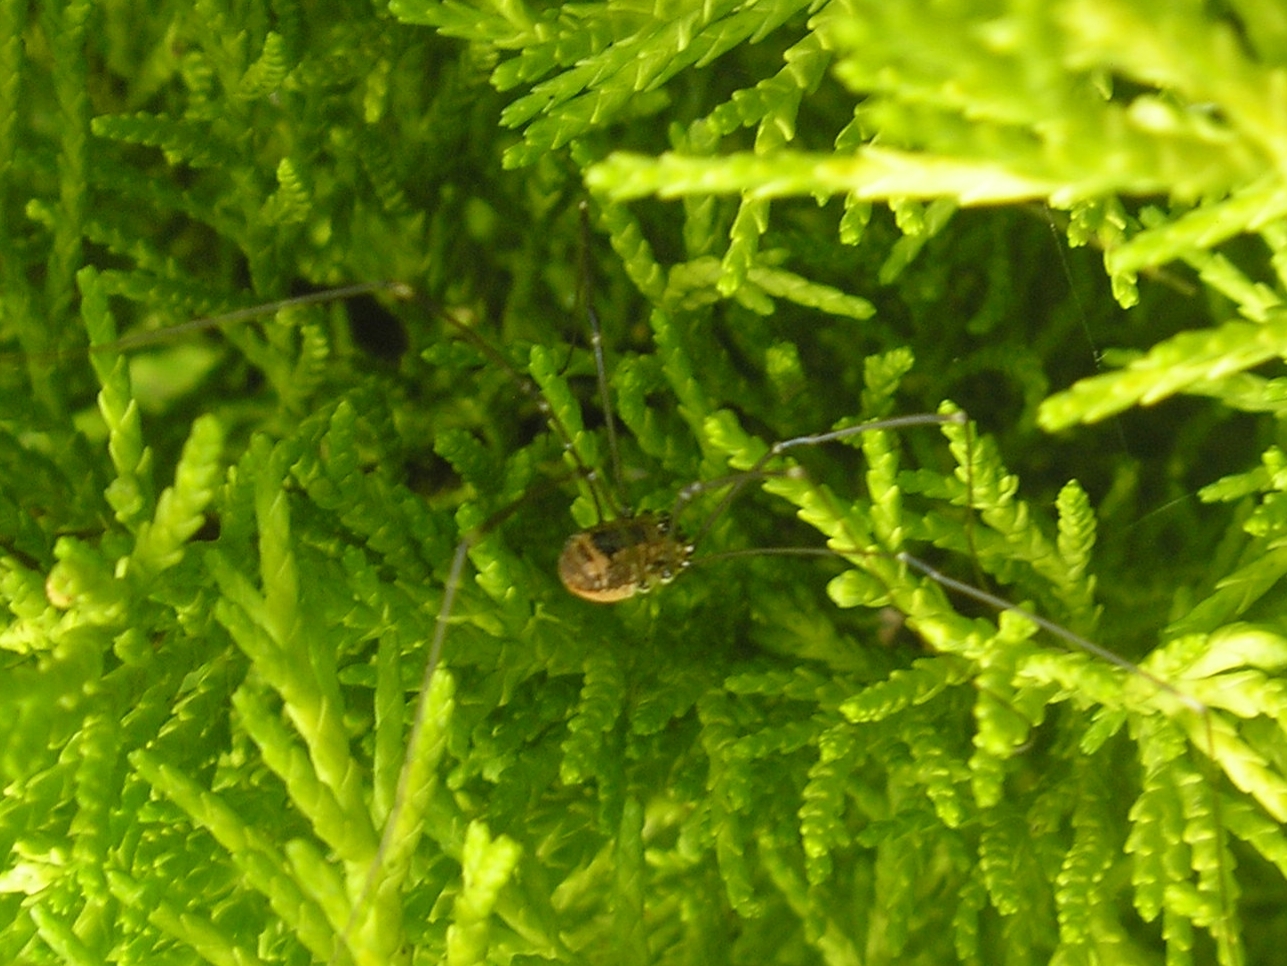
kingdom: Animalia
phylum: Arthropoda
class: Arachnida
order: Opiliones
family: Sclerosomatidae
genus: Leiobunum
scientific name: Leiobunum rotundum
